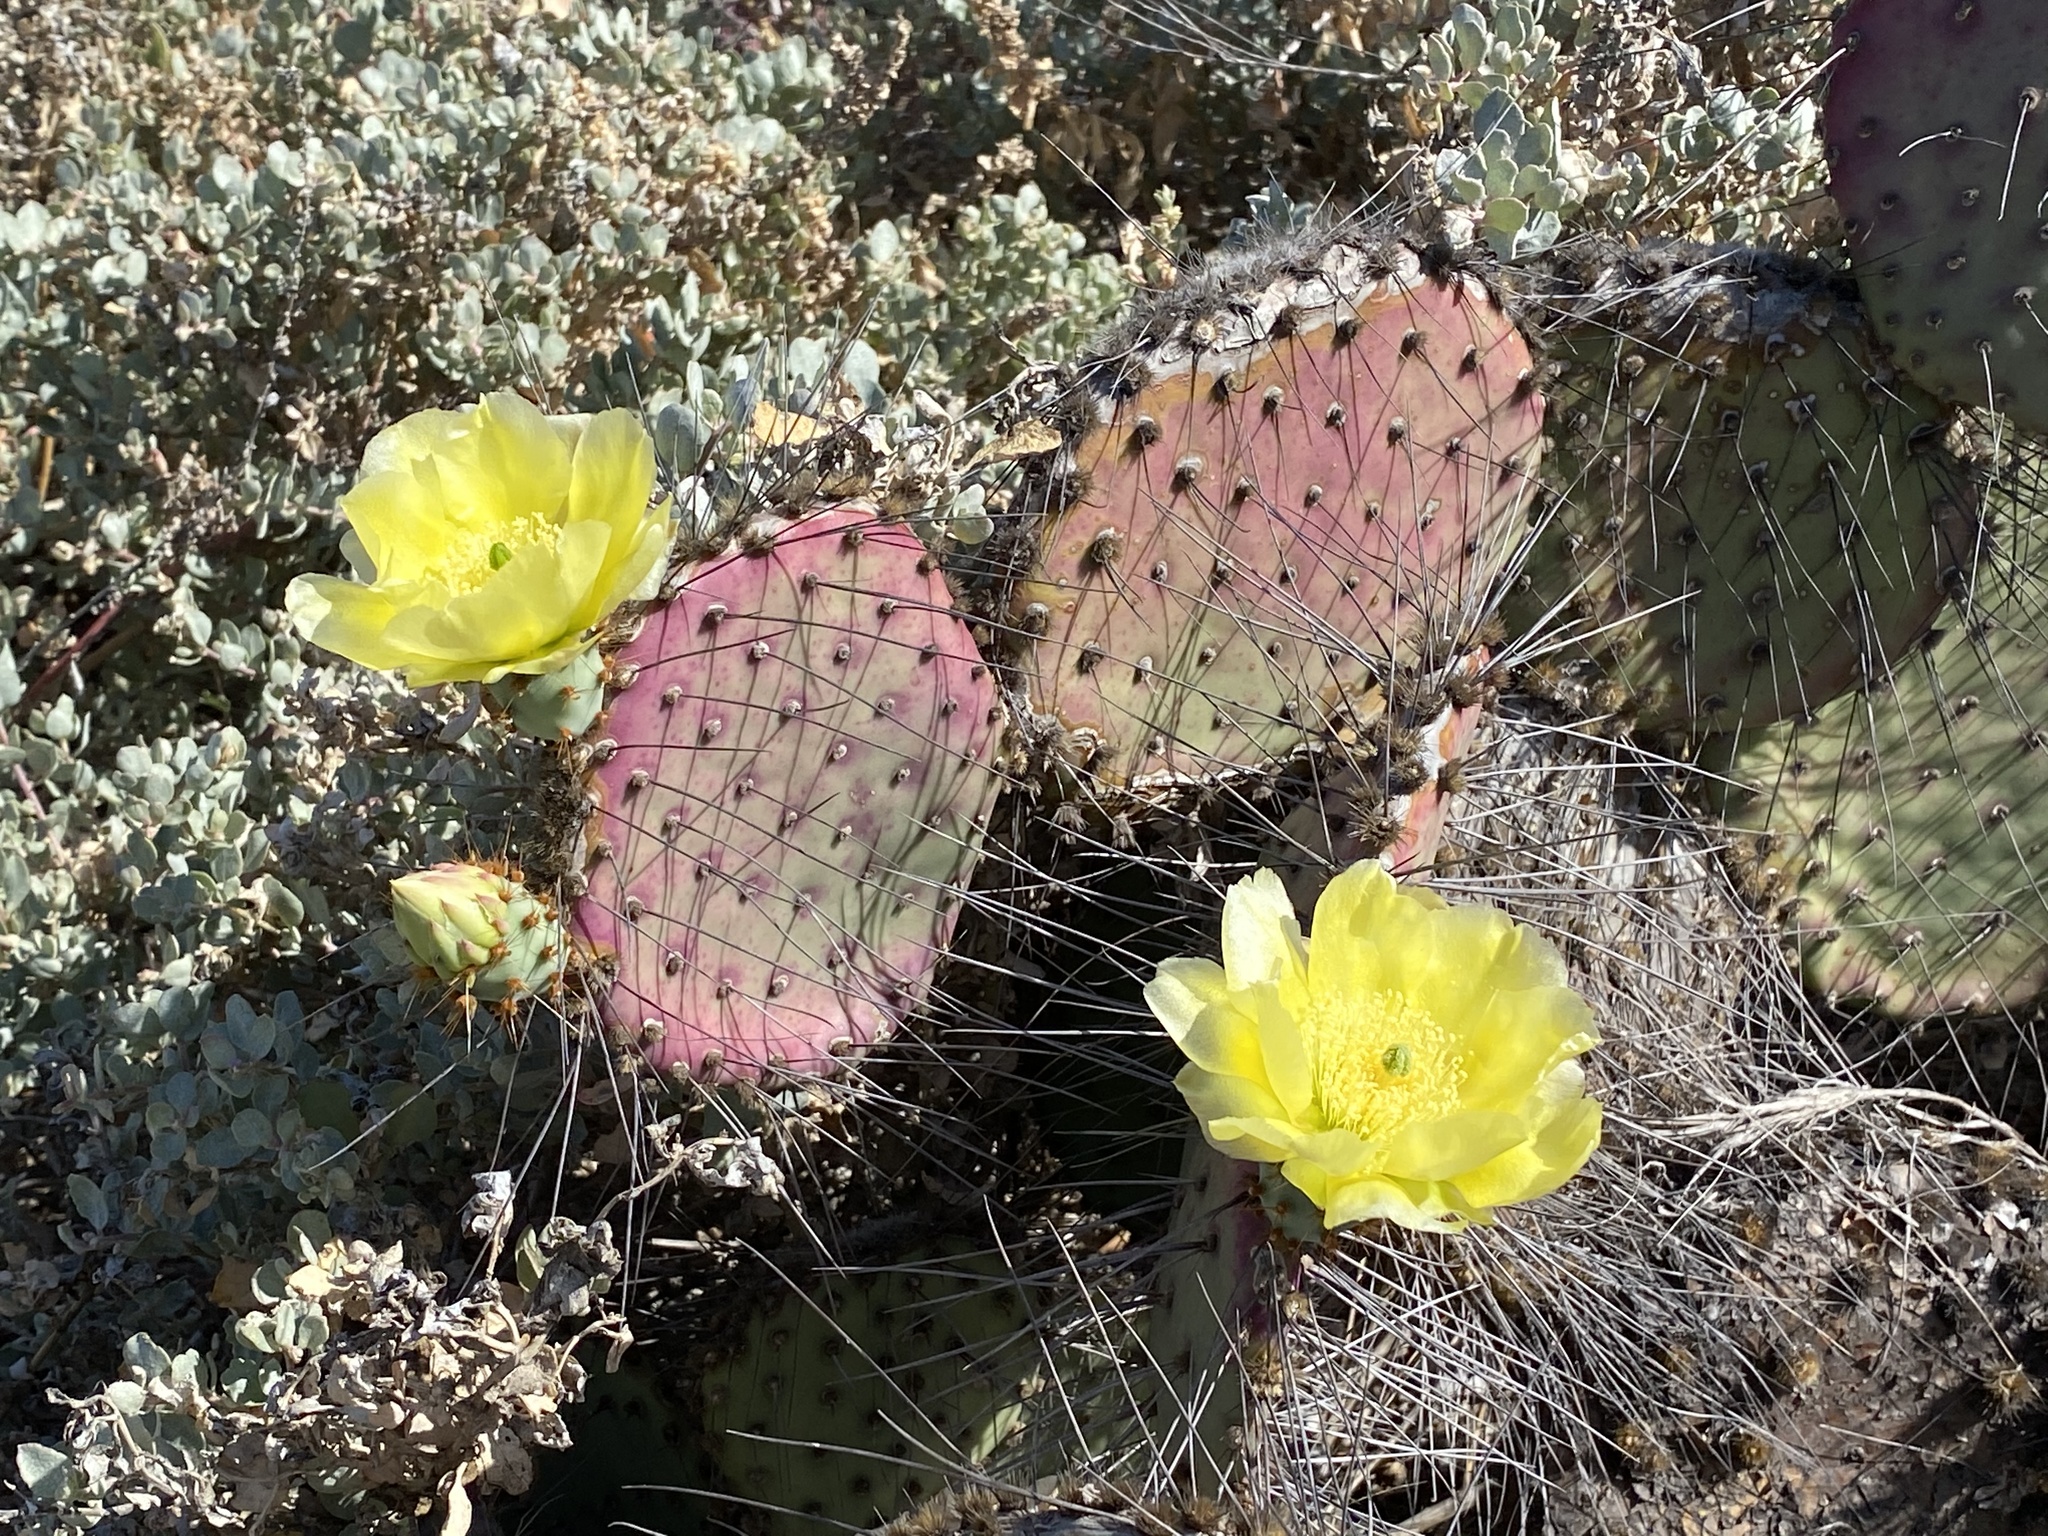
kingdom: Plantae
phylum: Tracheophyta
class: Magnoliopsida
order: Caryophyllales
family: Cactaceae
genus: Opuntia
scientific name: Opuntia gosseliniana
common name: Violet prickly-pear
